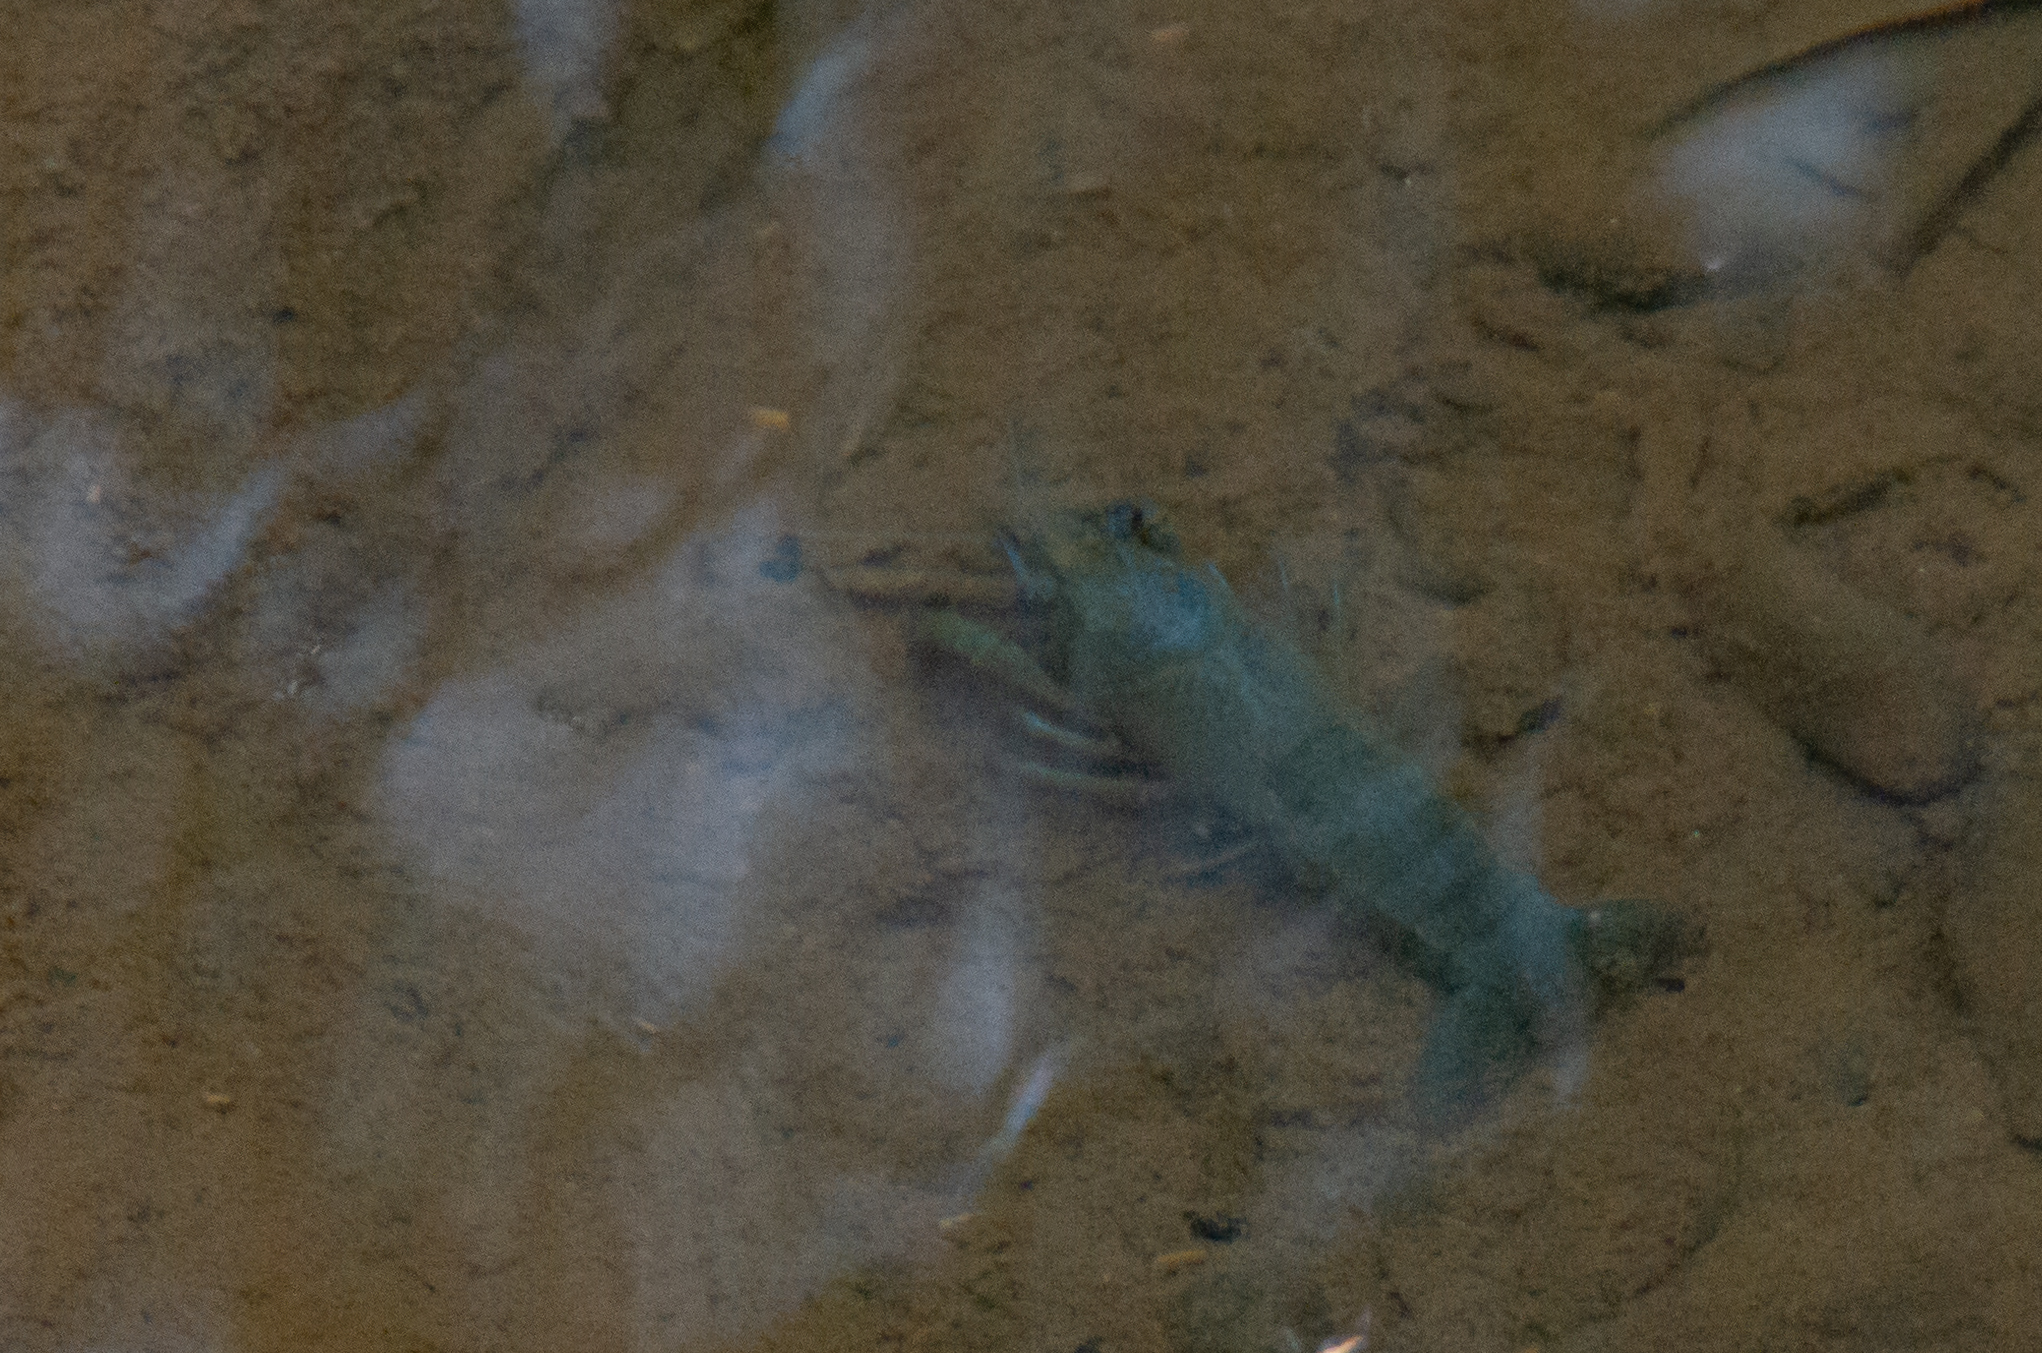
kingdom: Animalia
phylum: Arthropoda
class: Malacostraca
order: Decapoda
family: Cambaridae
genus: Procambarus
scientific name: Procambarus clarkii
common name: Red swamp crayfish
